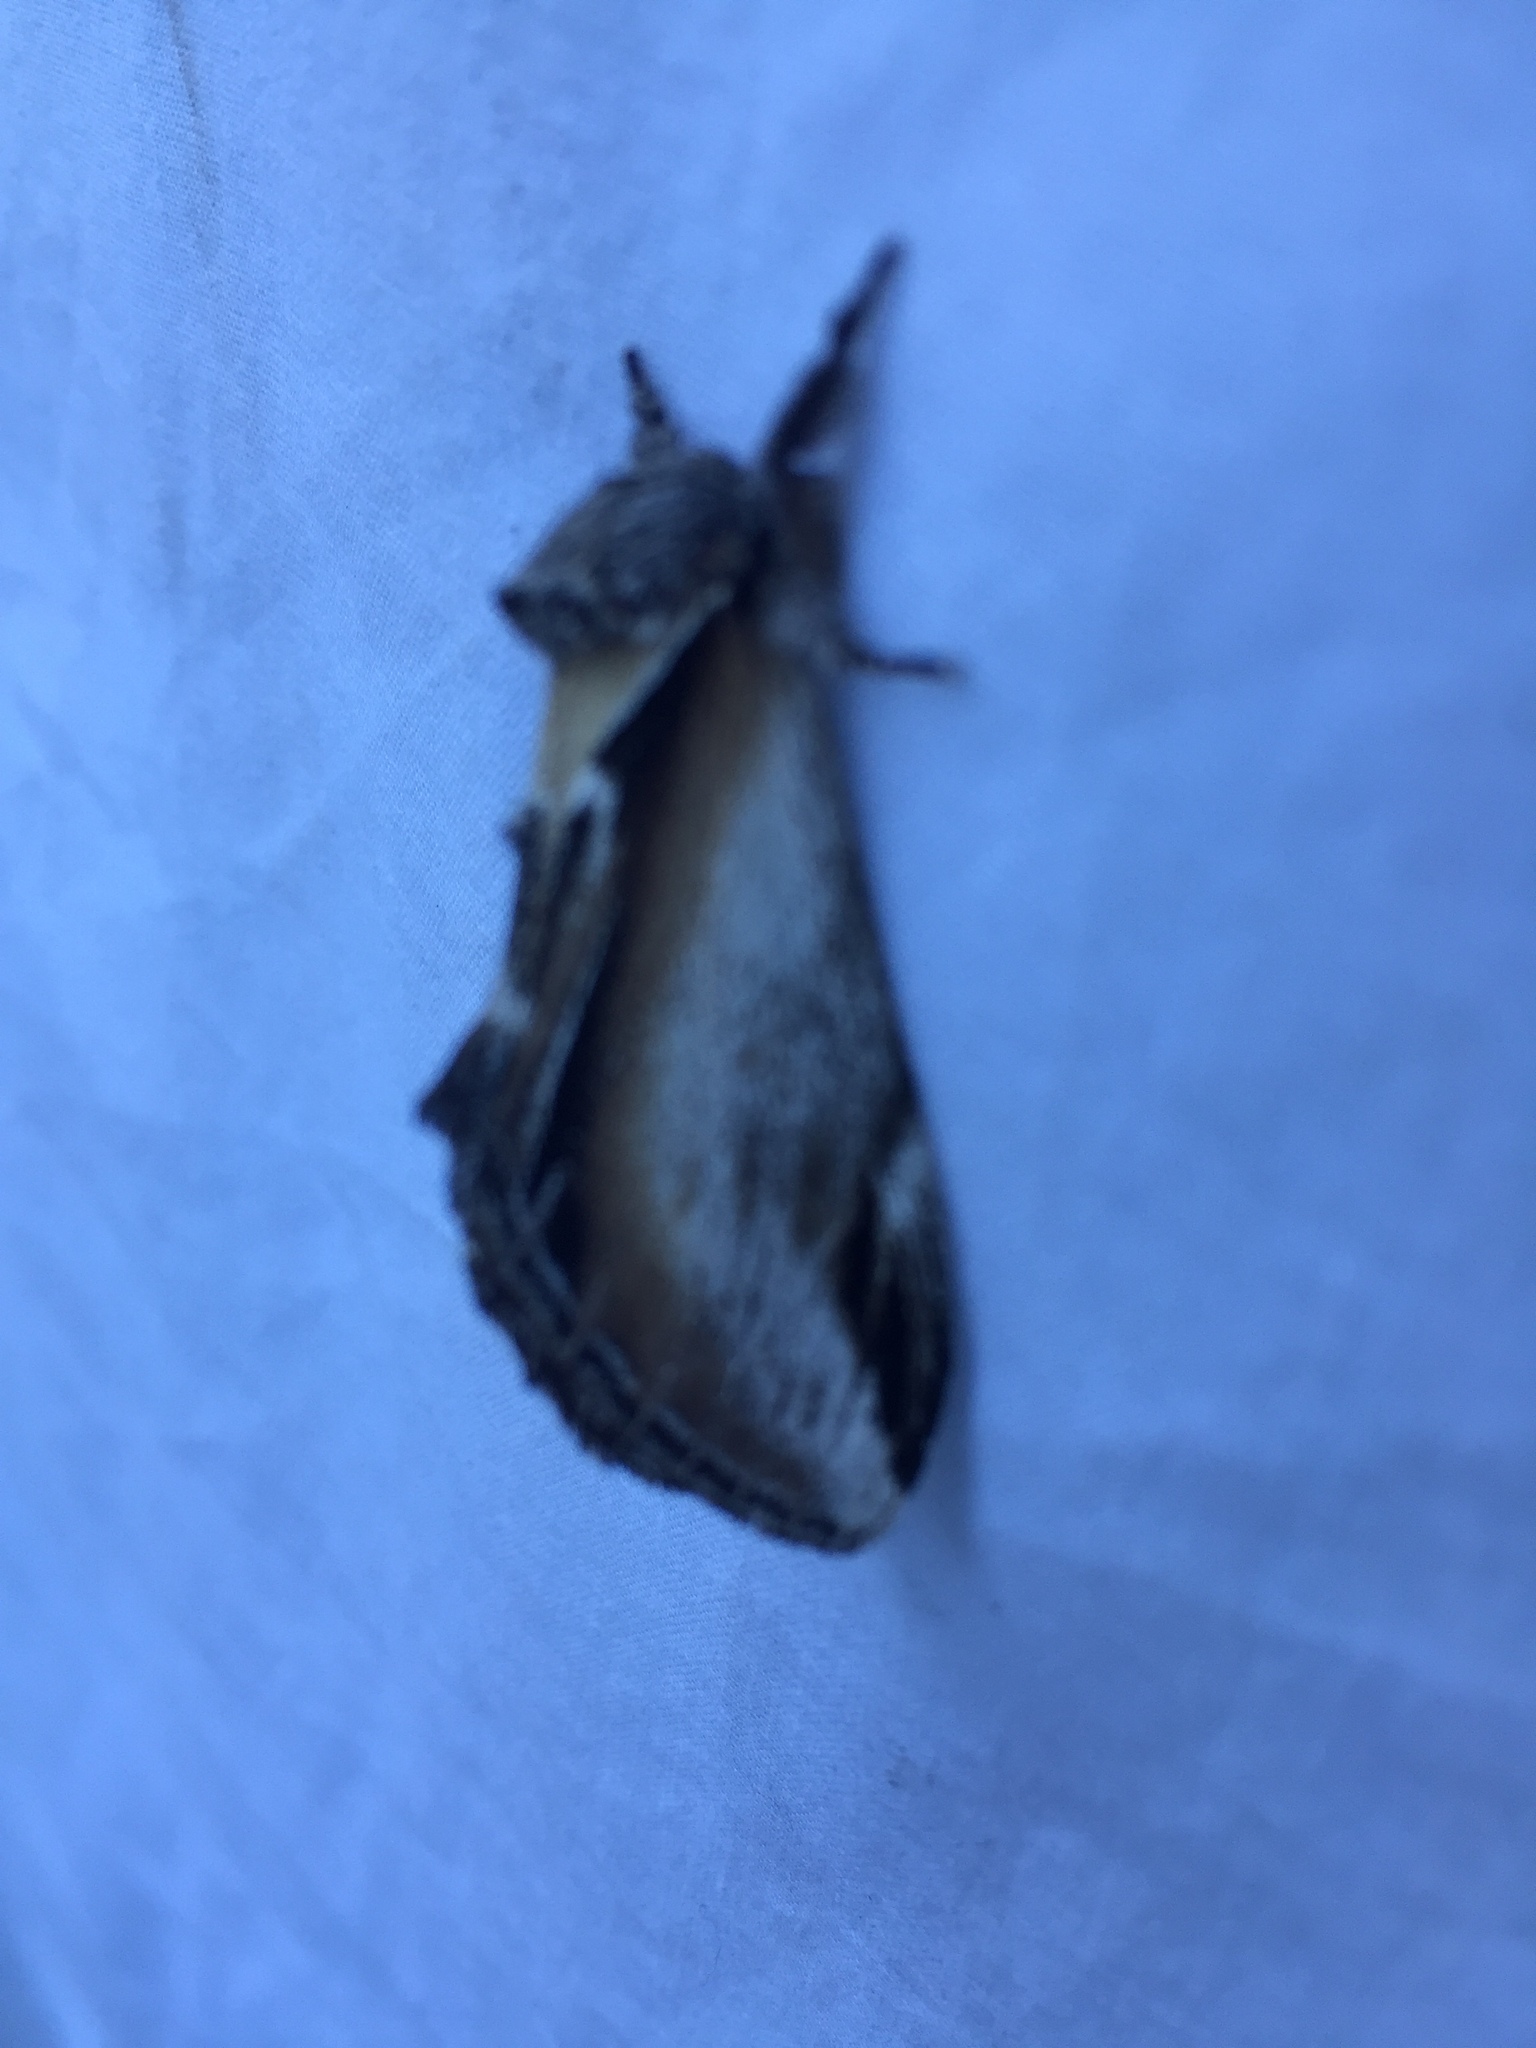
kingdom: Animalia
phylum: Arthropoda
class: Insecta
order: Lepidoptera
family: Notodontidae
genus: Pheosia
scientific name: Pheosia rimosa
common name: Black-rimmed prominent
